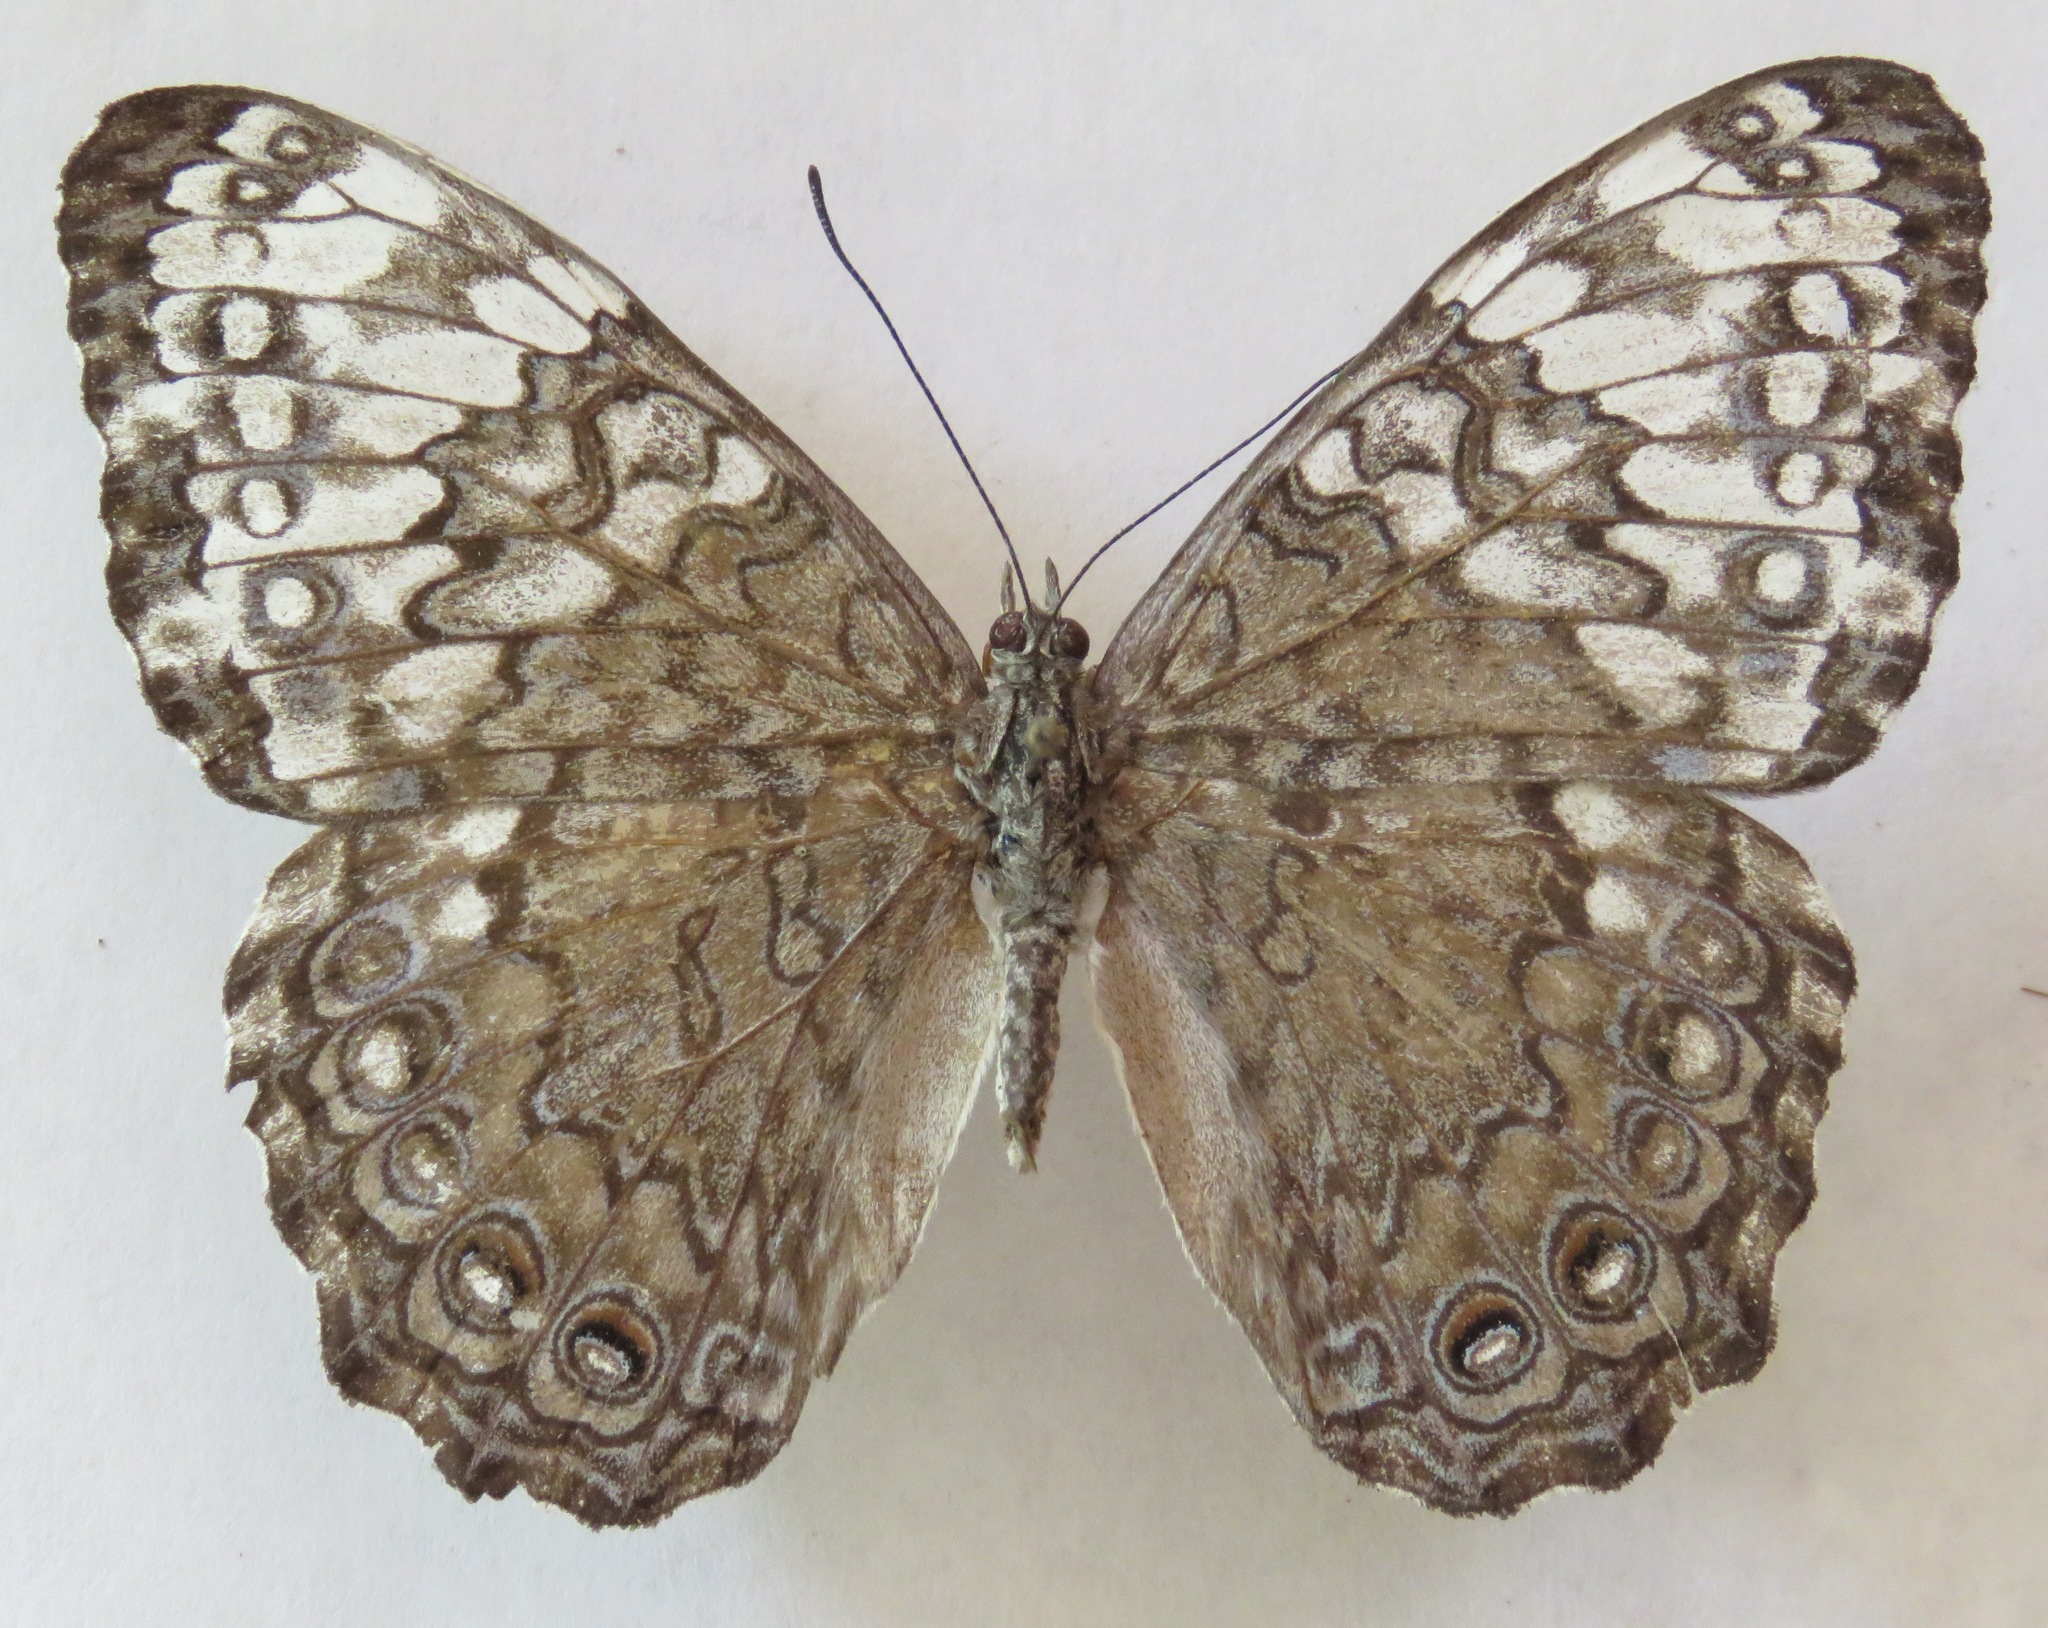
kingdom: Animalia
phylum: Arthropoda
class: Insecta
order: Lepidoptera
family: Nymphalidae
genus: Hamadryas
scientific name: Hamadryas glauconome
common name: Glaucous cracker
